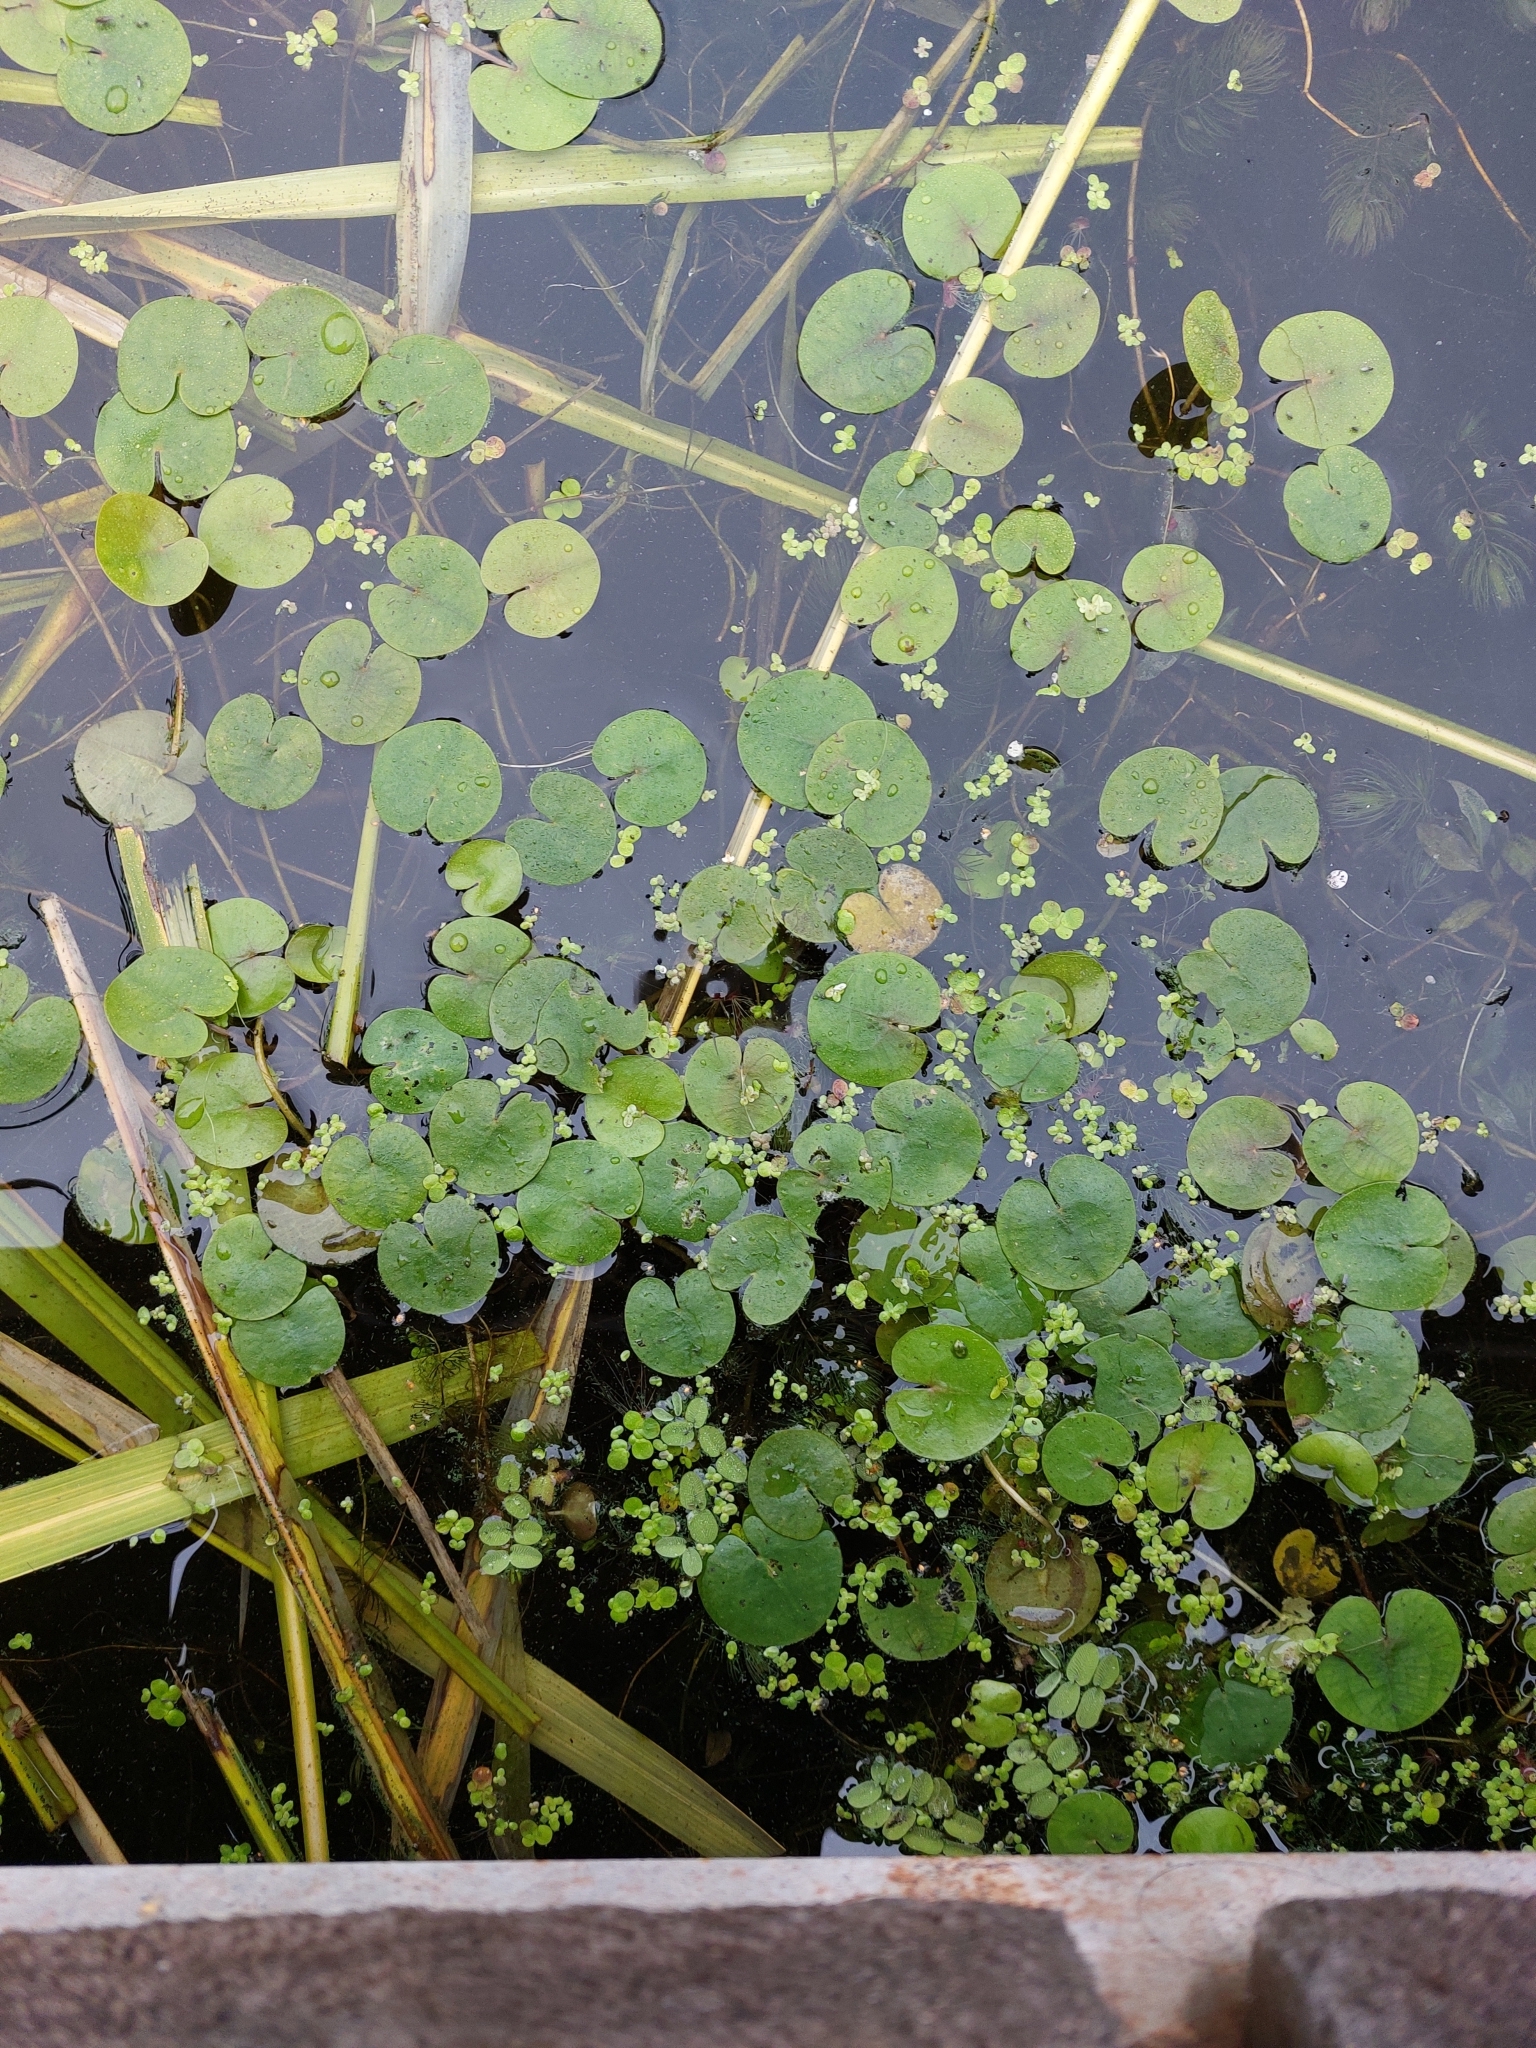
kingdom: Plantae
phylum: Tracheophyta
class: Liliopsida
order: Alismatales
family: Hydrocharitaceae
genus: Hydrocharis
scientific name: Hydrocharis morsus-ranae
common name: Frogbit
